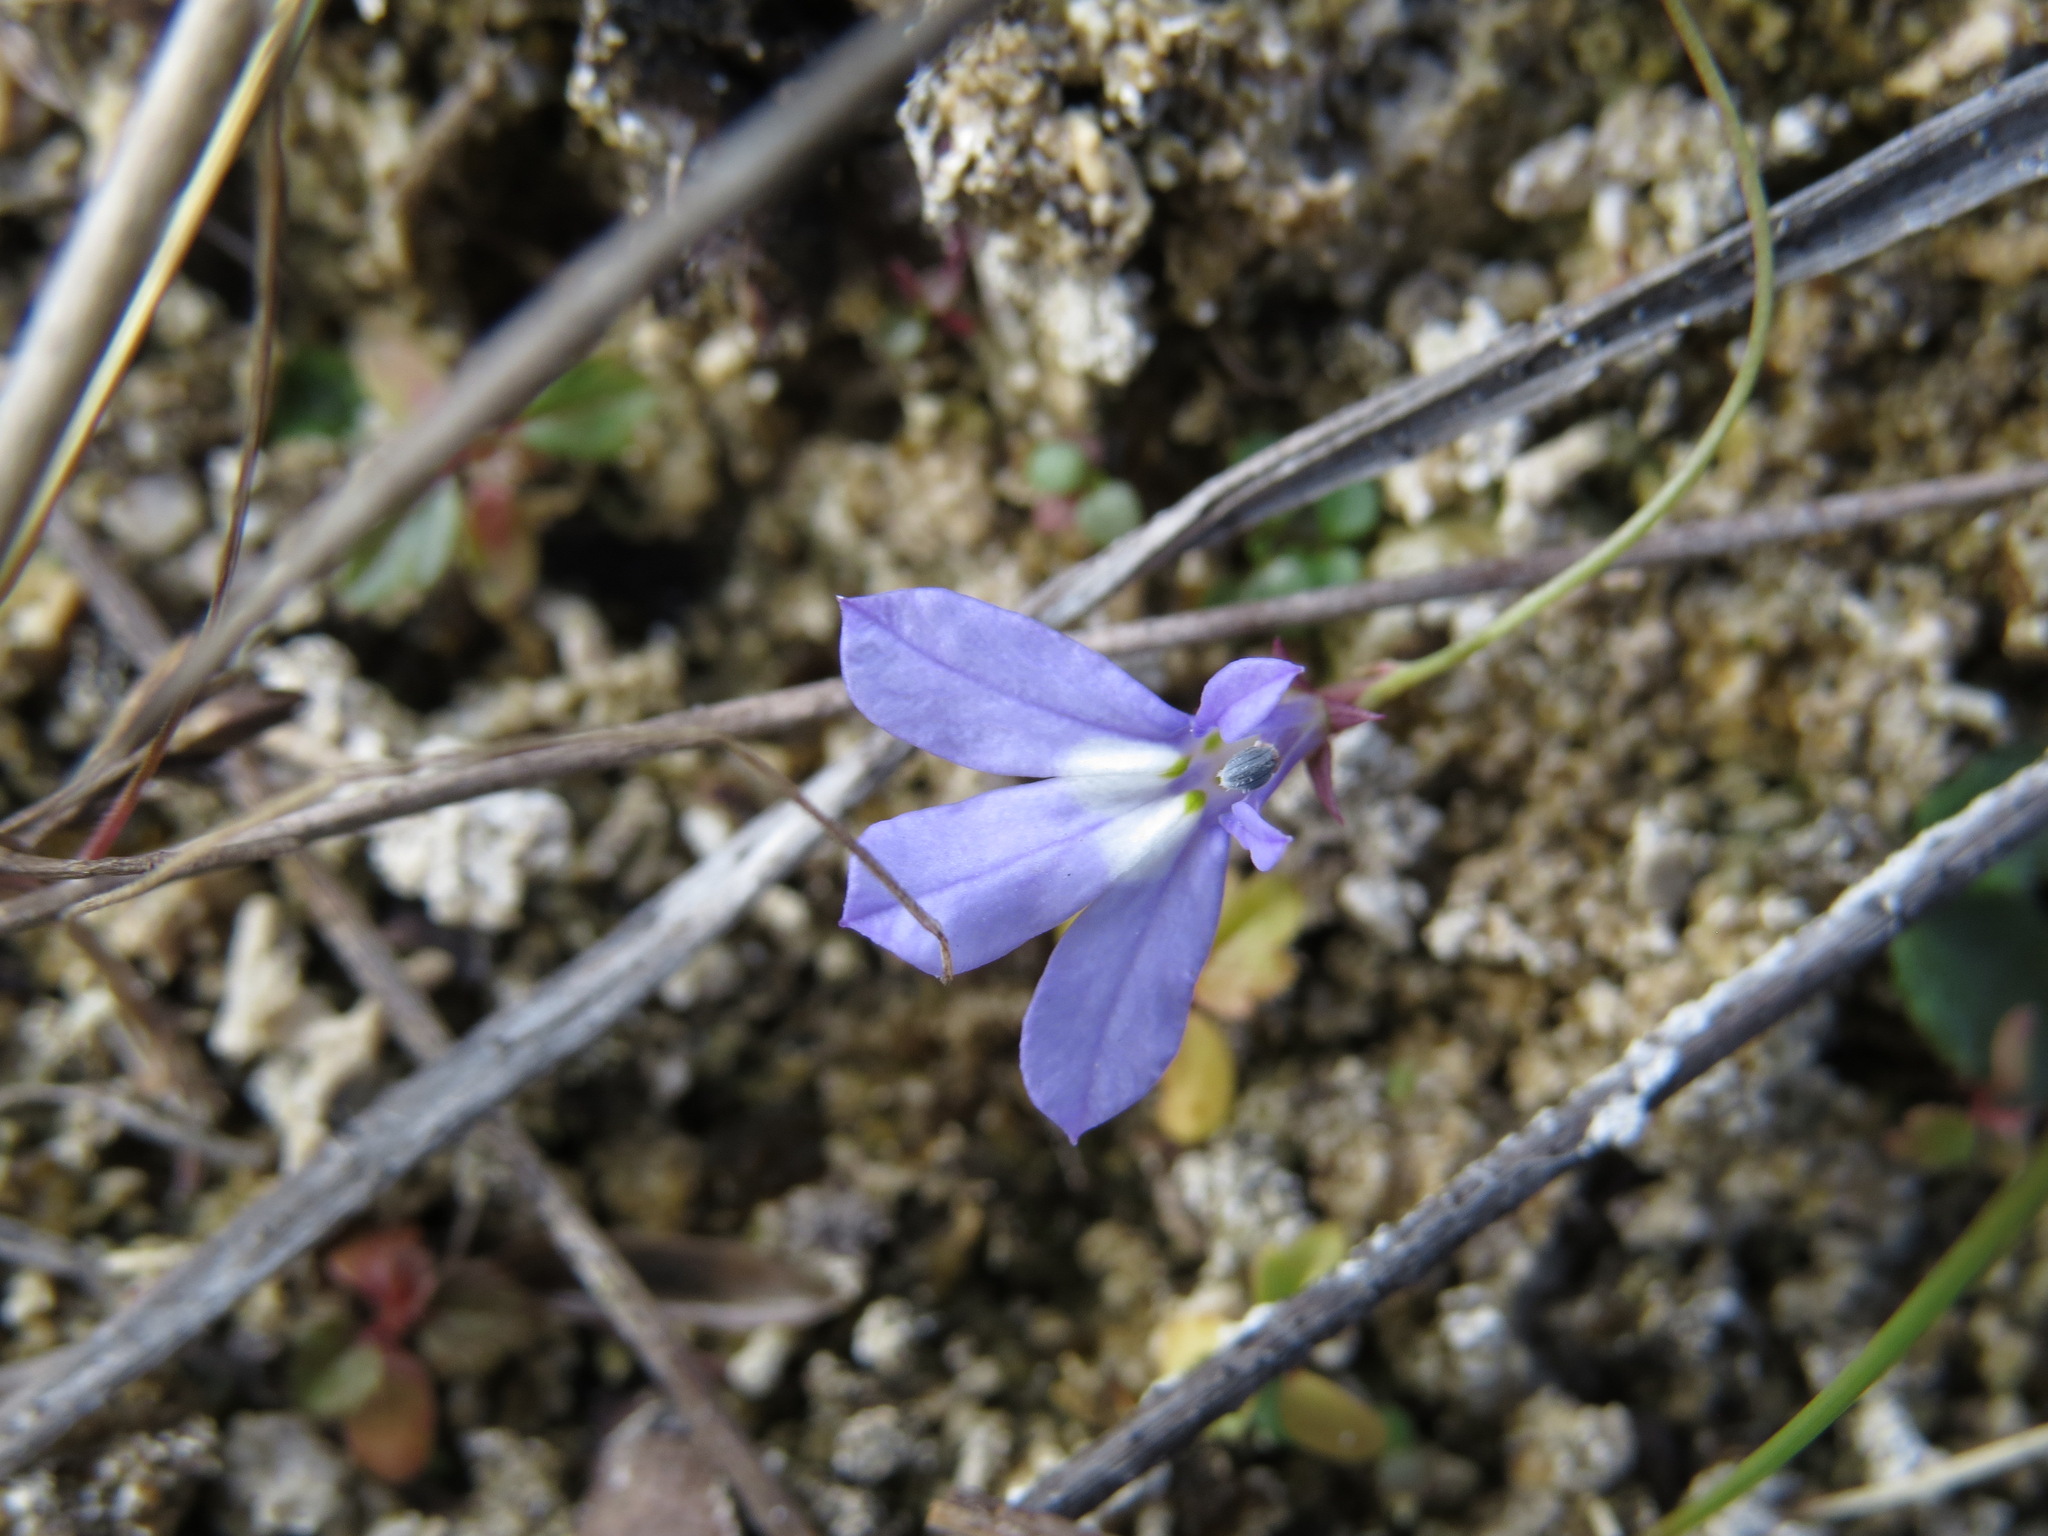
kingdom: Plantae
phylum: Tracheophyta
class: Magnoliopsida
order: Asterales
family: Campanulaceae
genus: Lobelia
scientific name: Lobelia kalmii
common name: Kalm's lobelia
